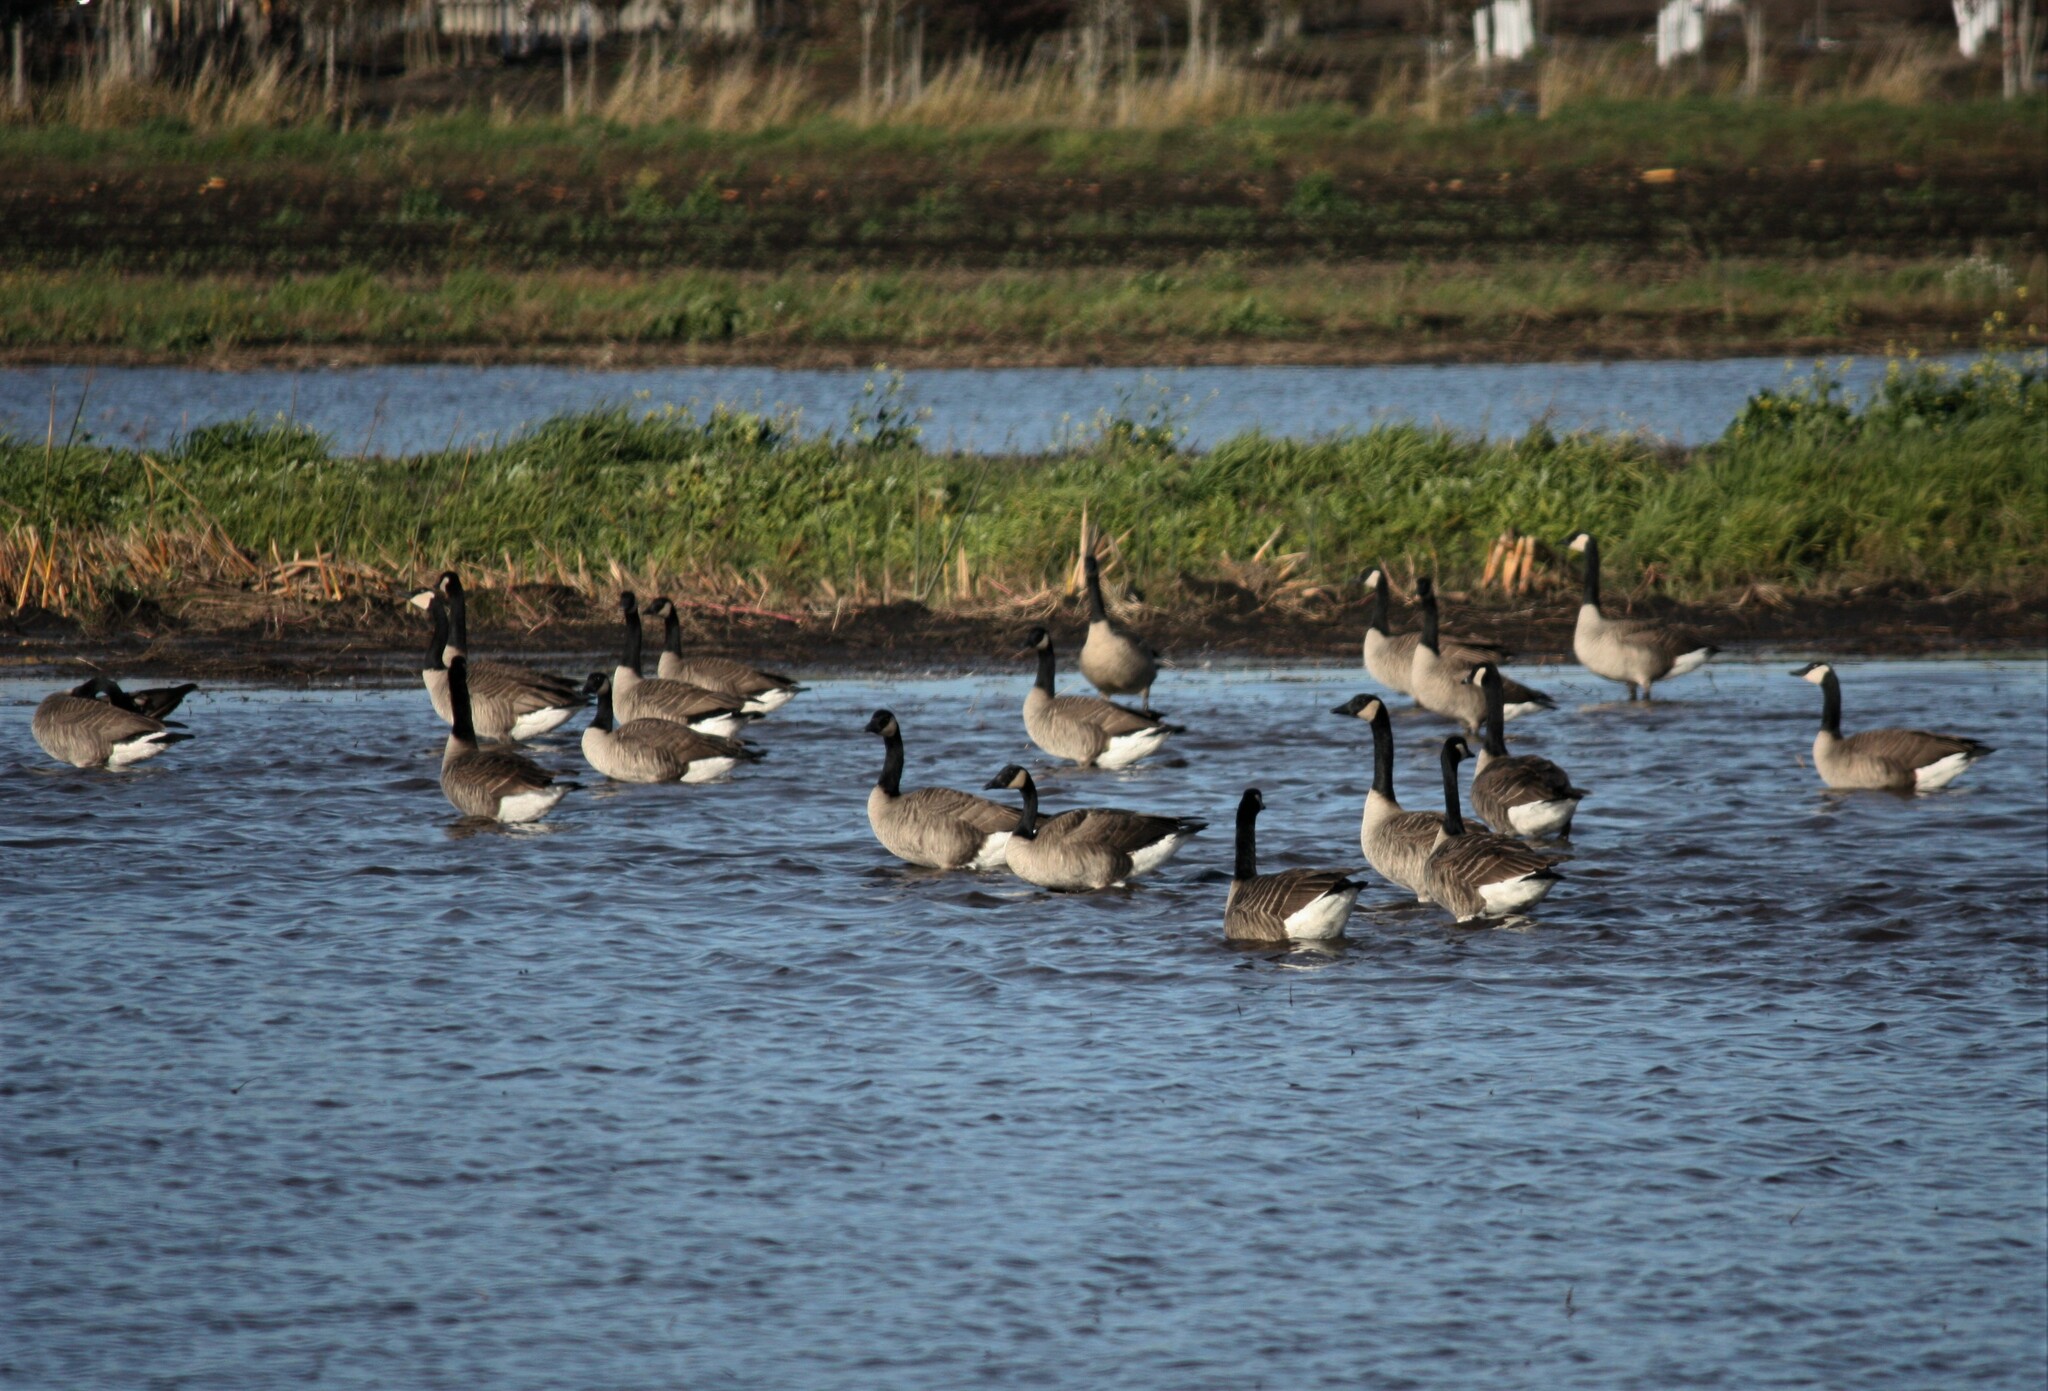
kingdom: Animalia
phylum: Chordata
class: Aves
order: Anseriformes
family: Anatidae
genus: Branta
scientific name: Branta canadensis
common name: Canada goose
